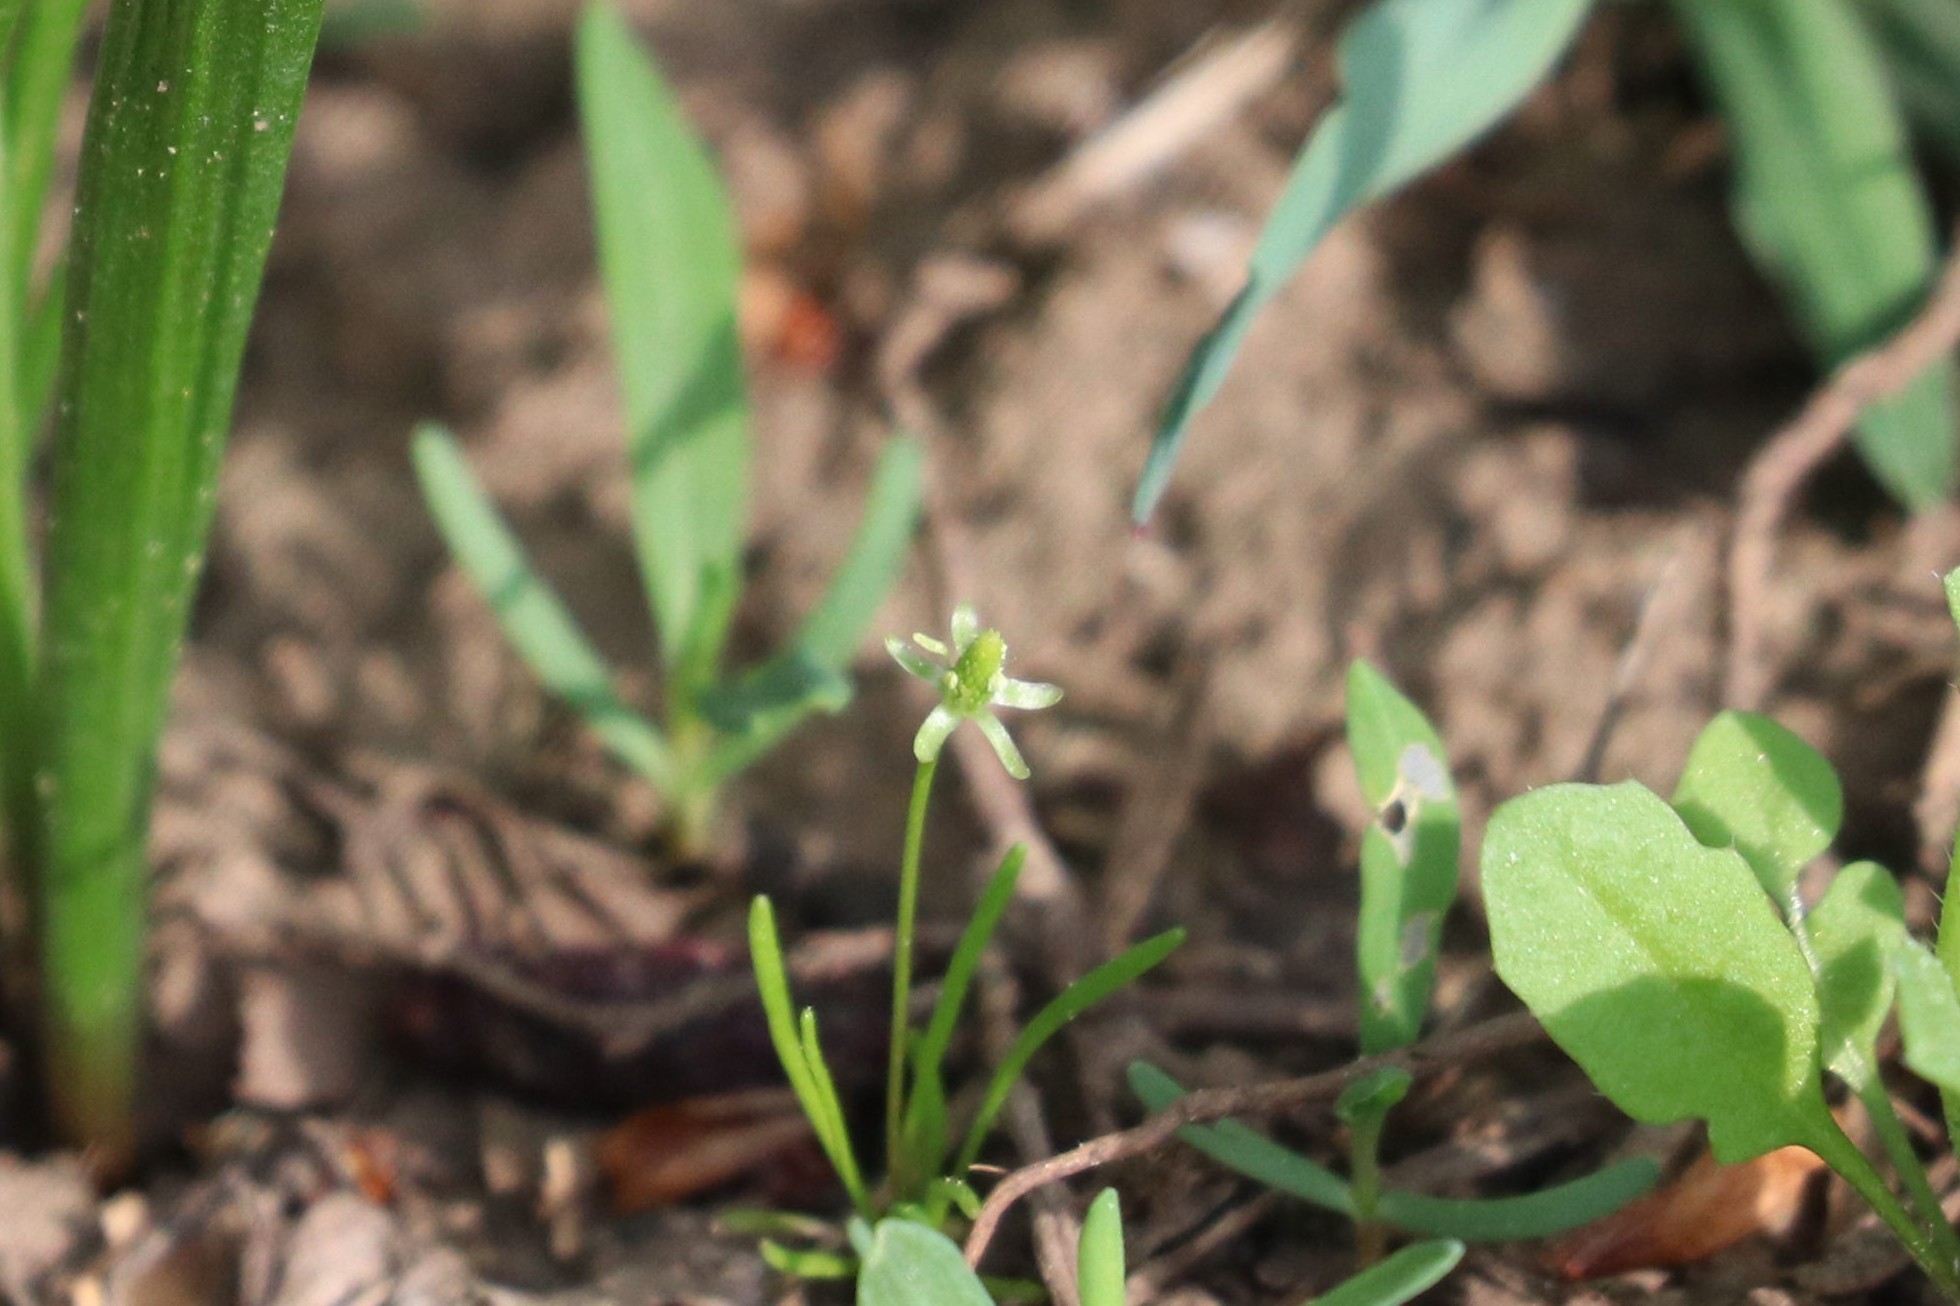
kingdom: Plantae
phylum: Tracheophyta
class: Magnoliopsida
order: Ranunculales
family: Ranunculaceae
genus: Myosurus
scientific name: Myosurus minimus
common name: Mousetail
